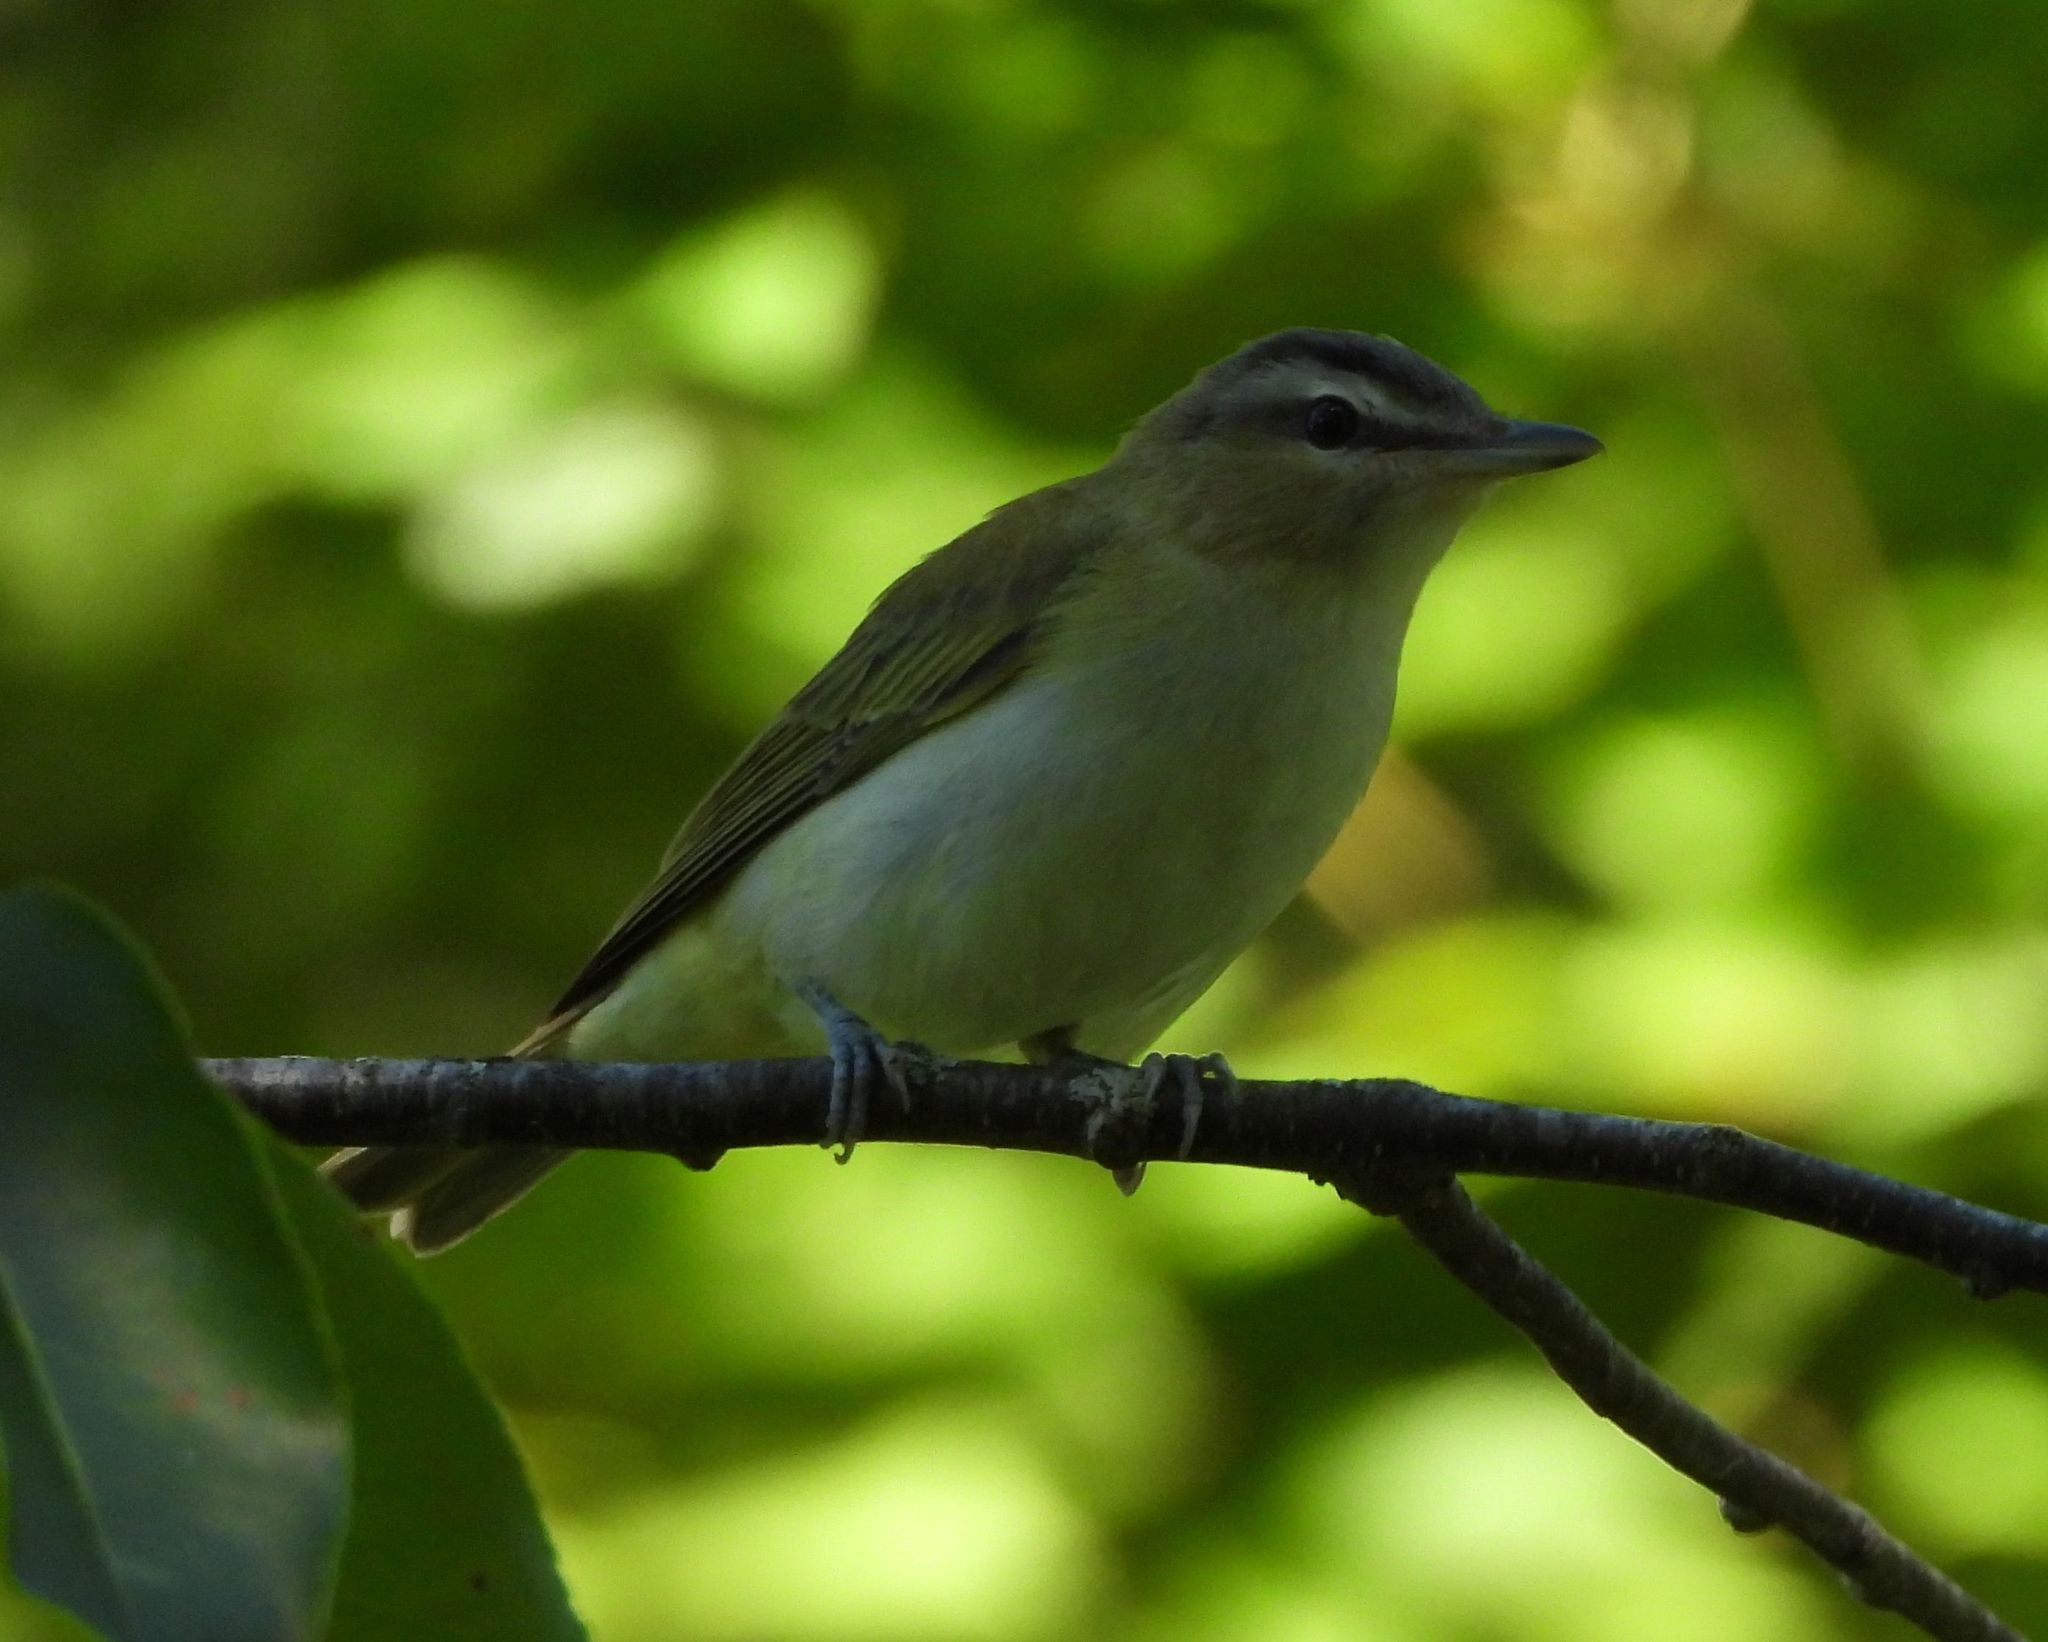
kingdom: Animalia
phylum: Chordata
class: Aves
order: Passeriformes
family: Vireonidae
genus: Vireo
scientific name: Vireo olivaceus
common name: Red-eyed vireo
